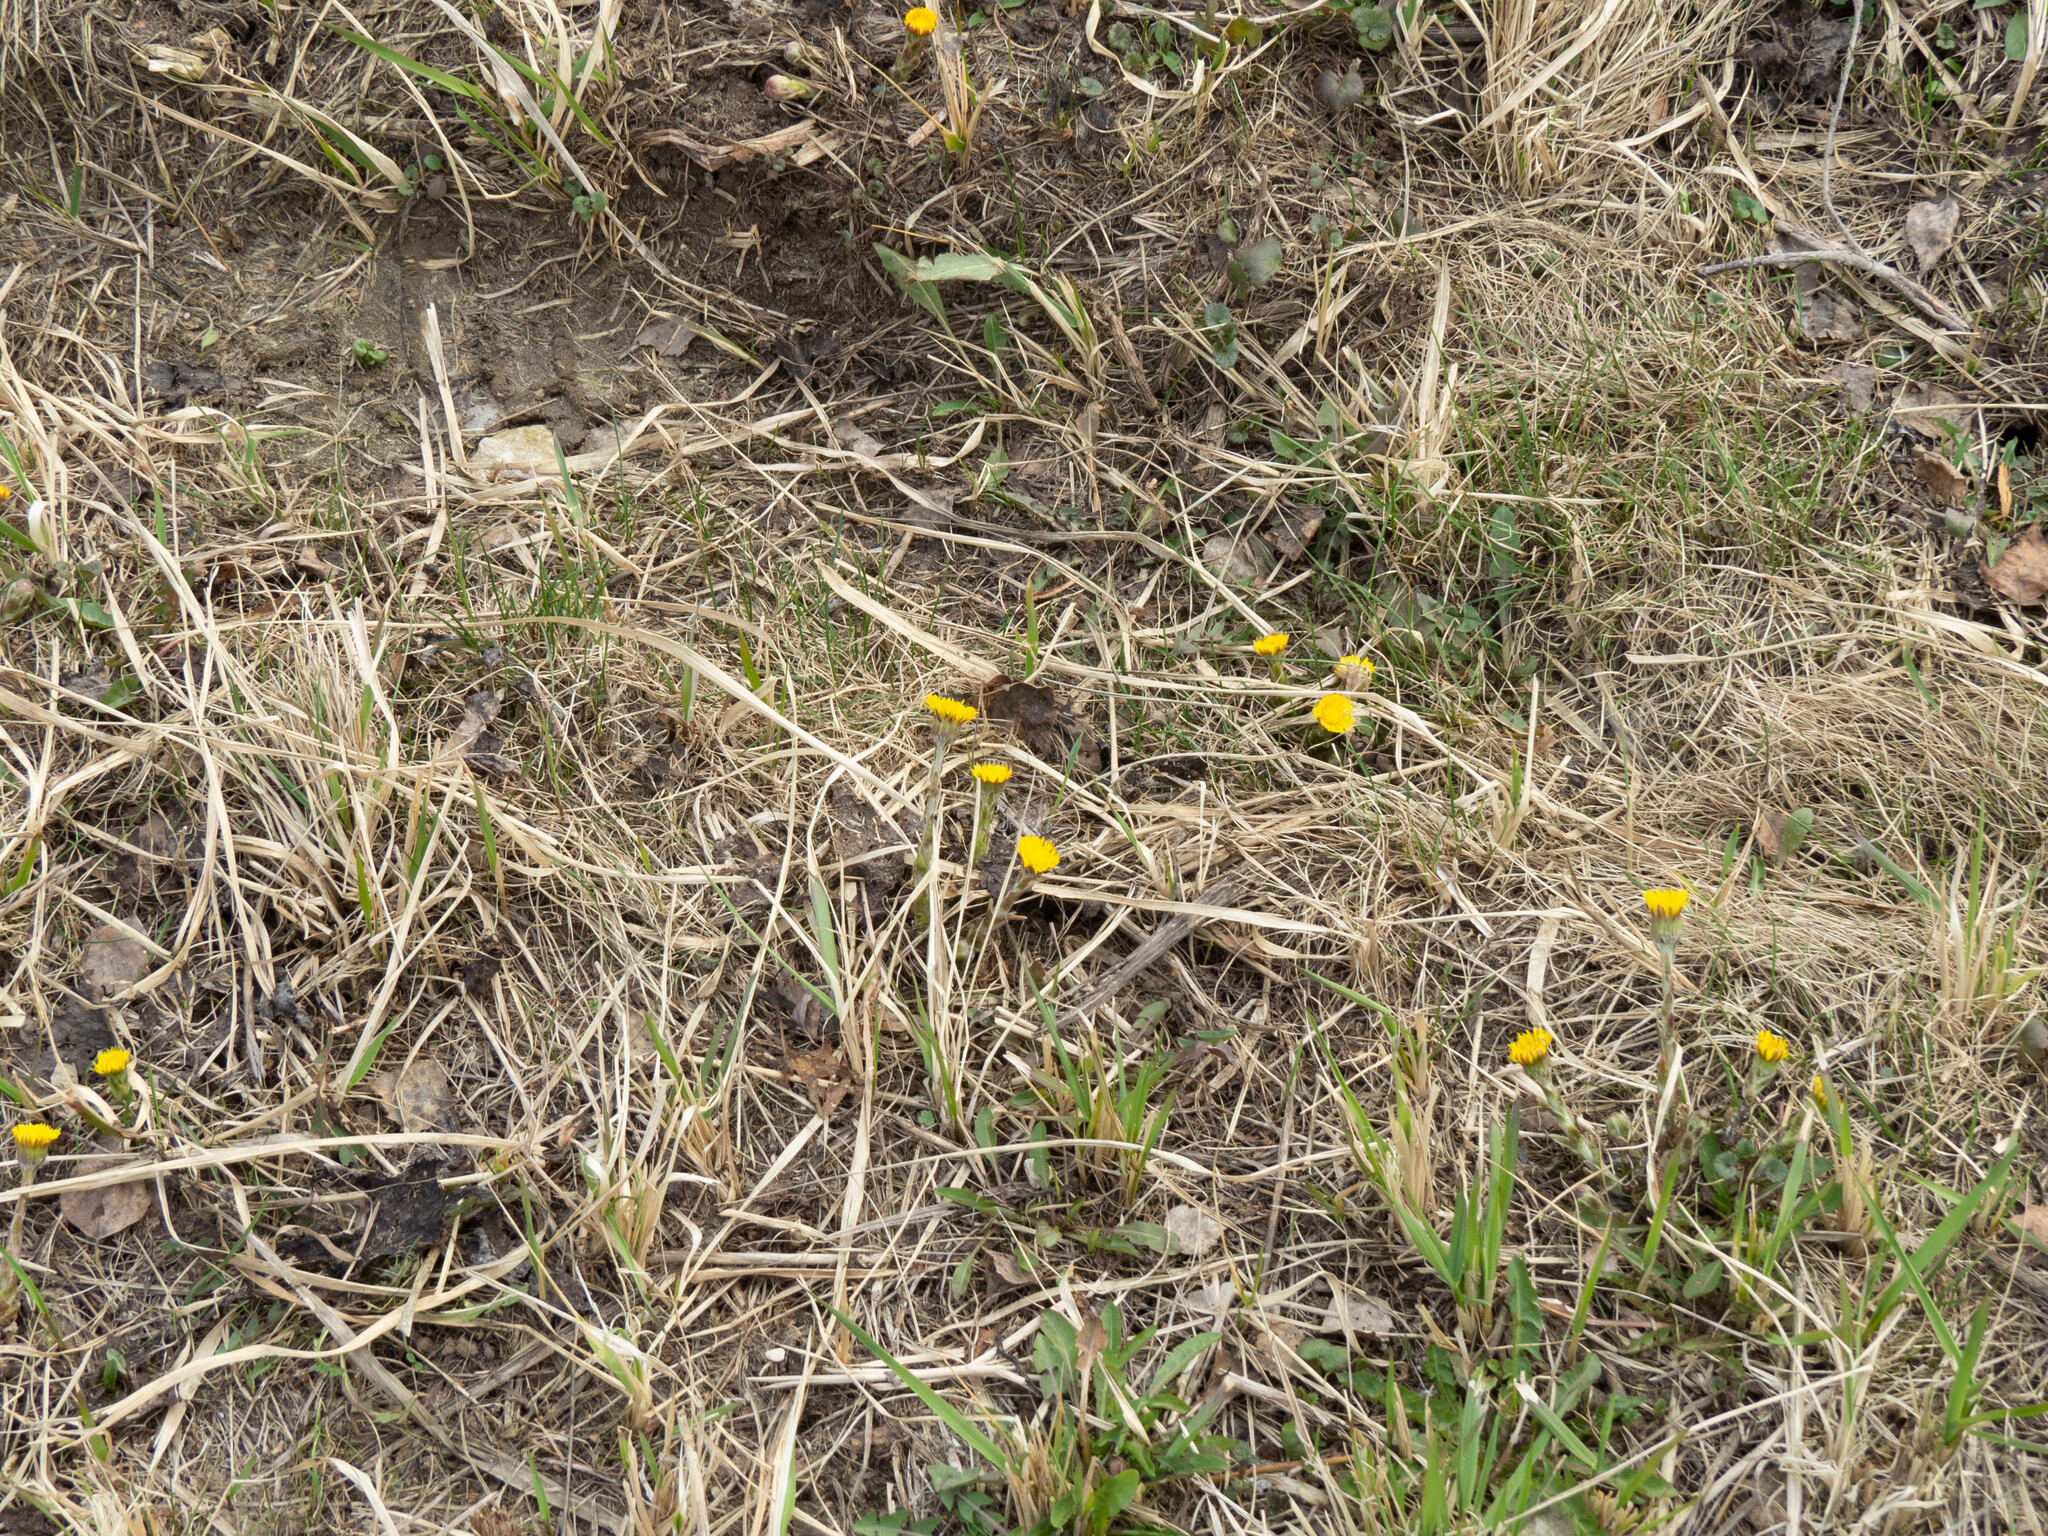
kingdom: Plantae
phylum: Tracheophyta
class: Magnoliopsida
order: Asterales
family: Asteraceae
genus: Tussilago
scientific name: Tussilago farfara
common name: Coltsfoot
